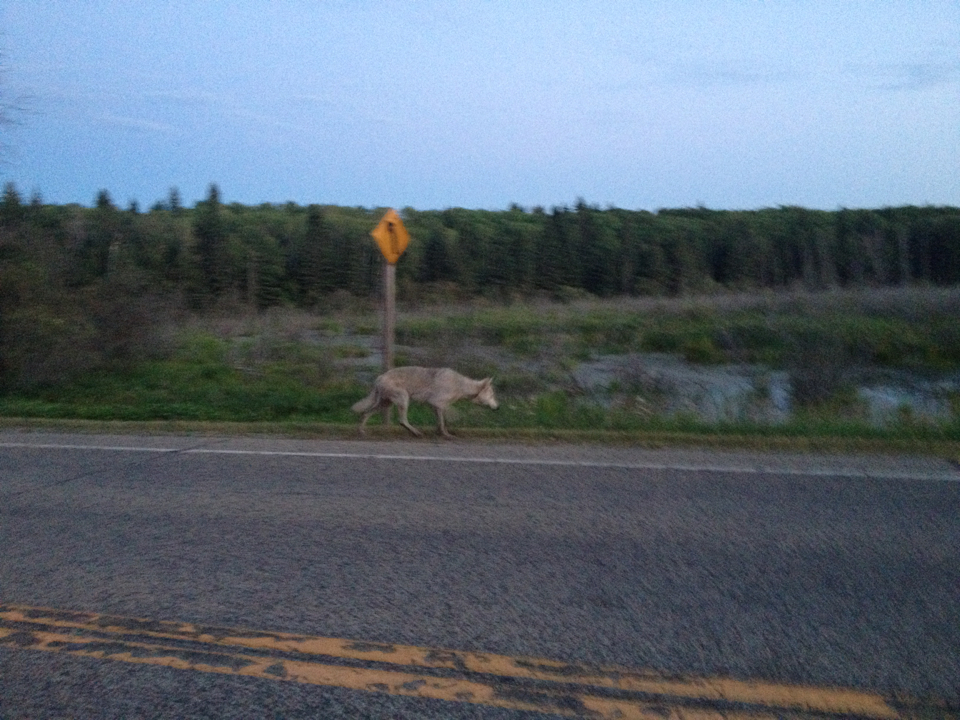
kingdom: Animalia
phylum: Chordata
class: Mammalia
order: Carnivora
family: Canidae
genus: Canis
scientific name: Canis lupus
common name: Gray wolf
